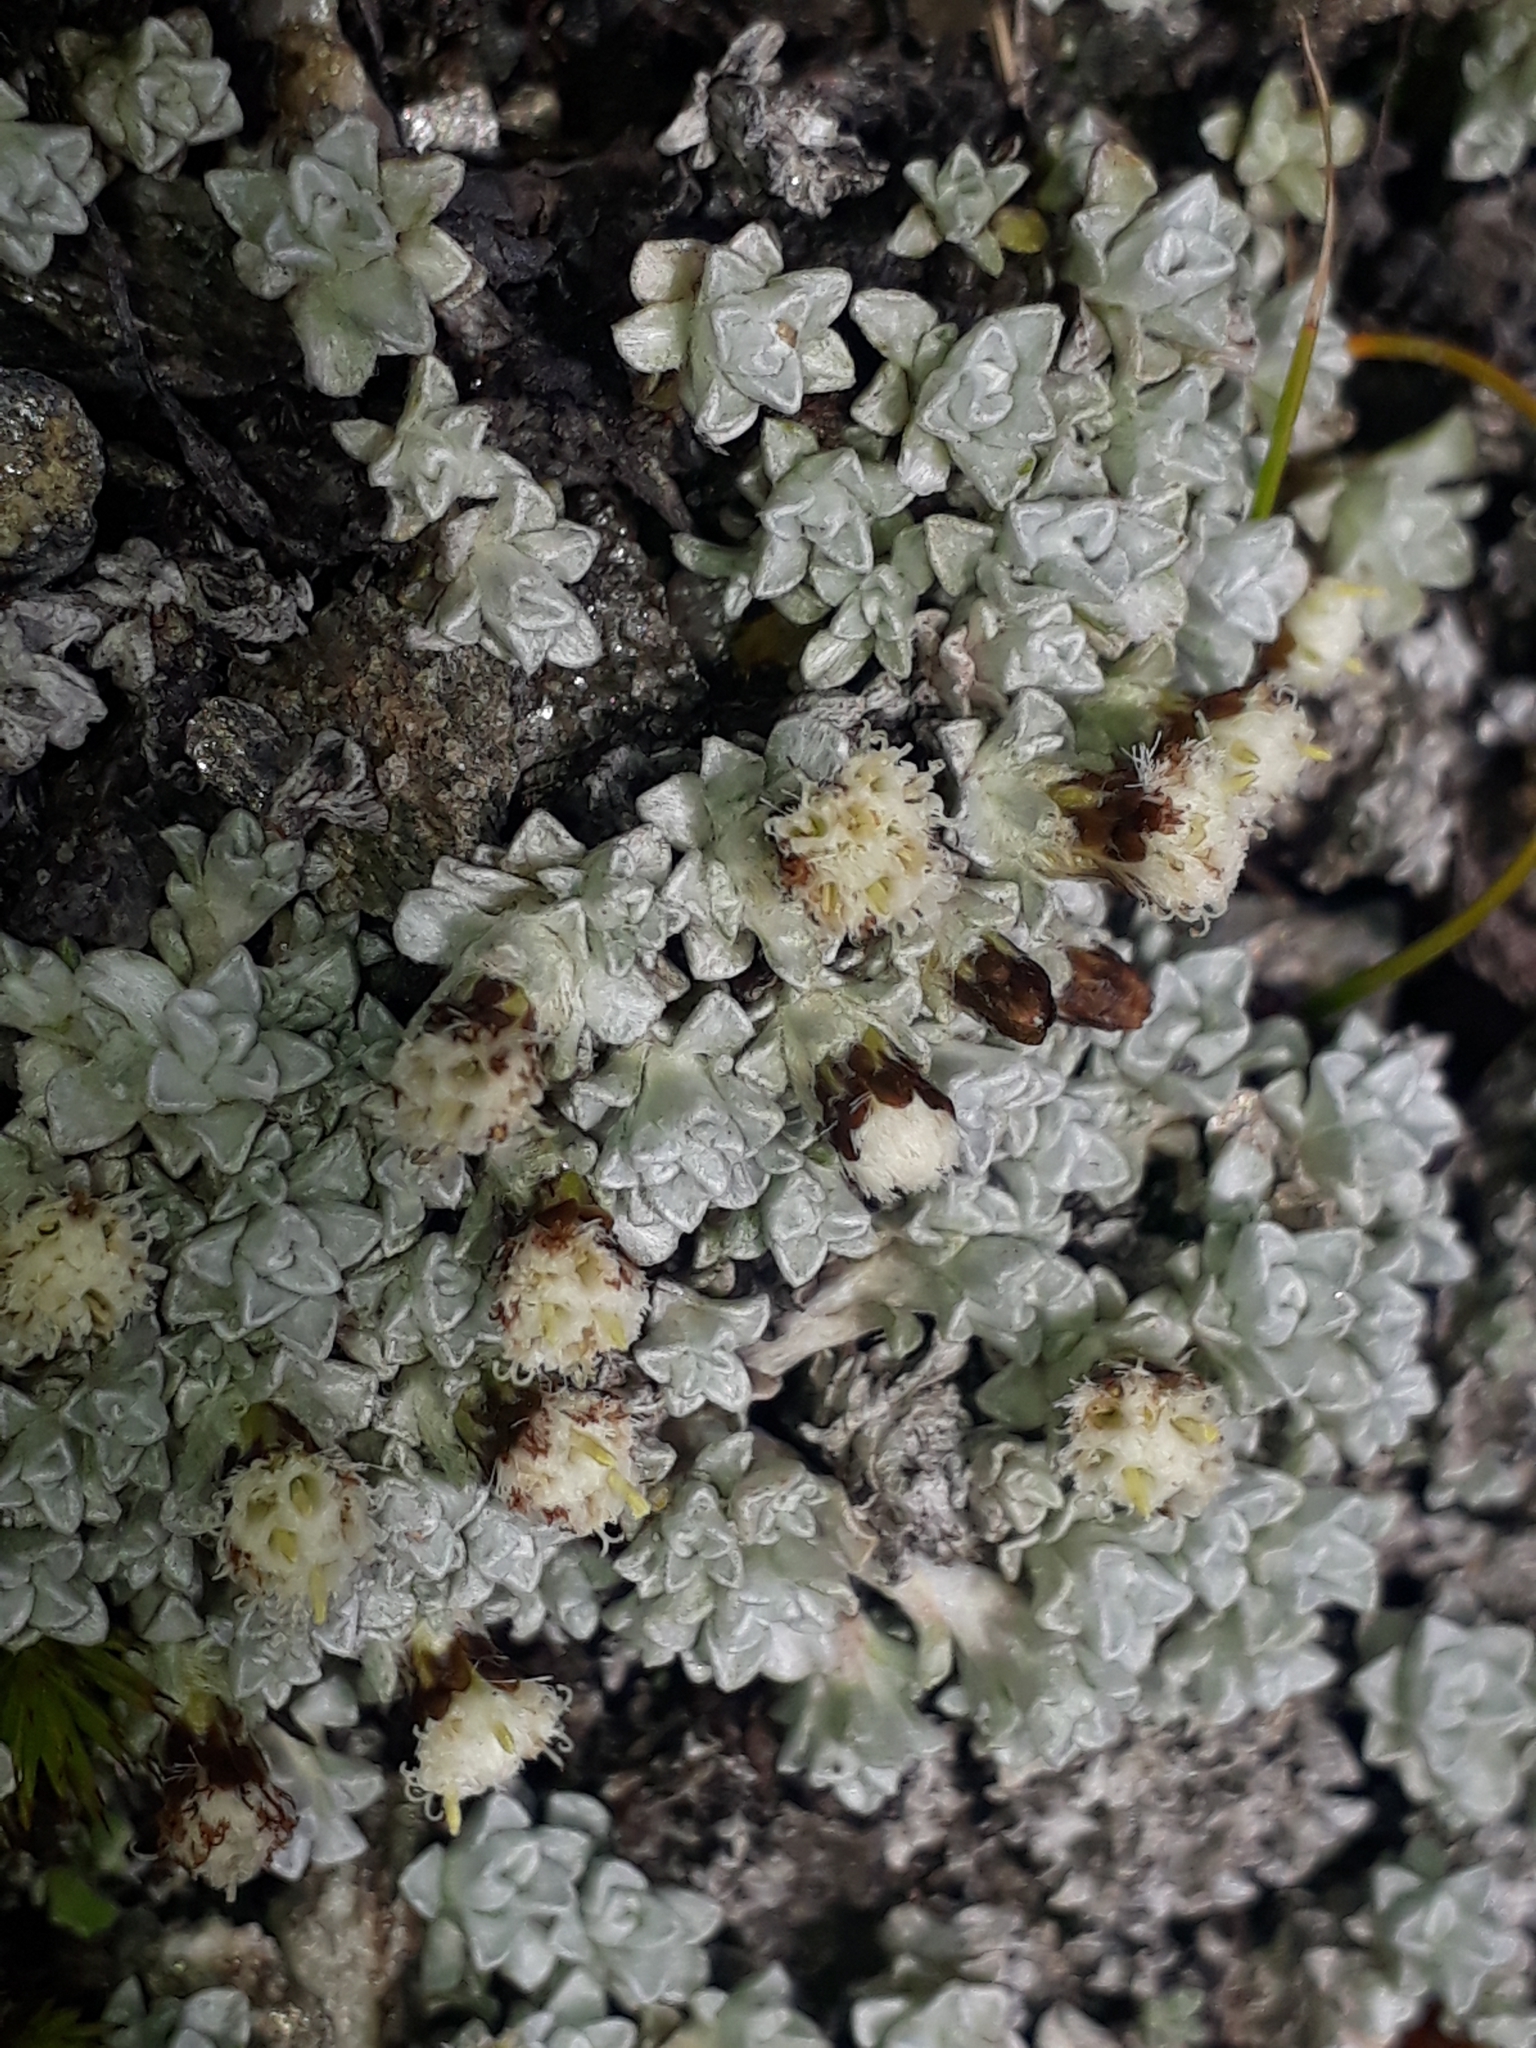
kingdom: Plantae
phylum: Tracheophyta
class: Magnoliopsida
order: Asterales
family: Asteraceae
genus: Raoulia
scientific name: Raoulia apicinigra
